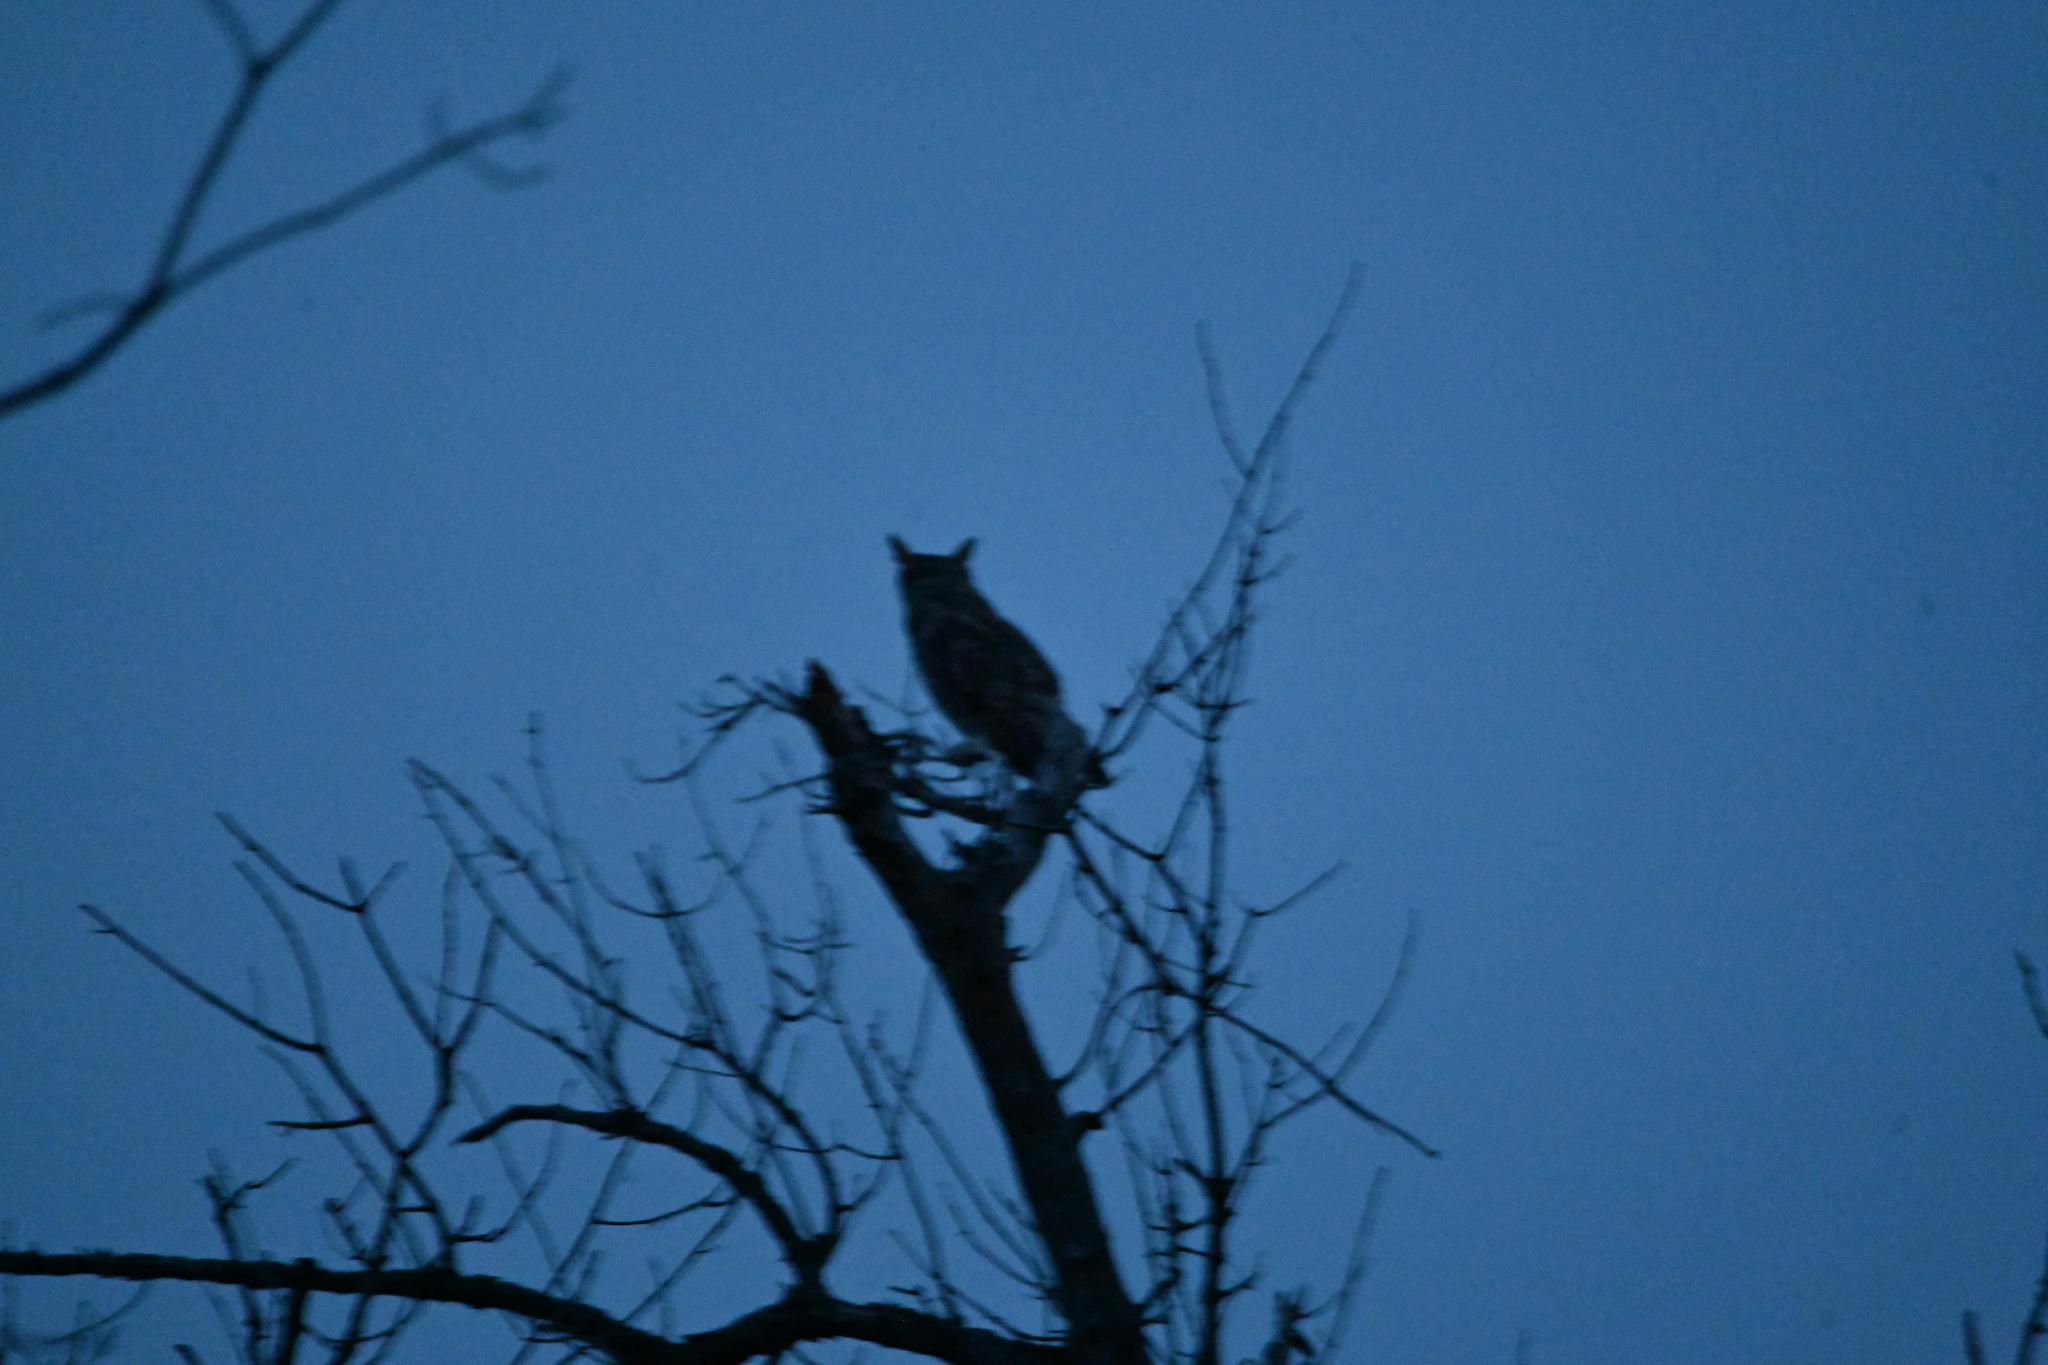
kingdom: Animalia
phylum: Chordata
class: Aves
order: Strigiformes
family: Strigidae
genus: Bubo
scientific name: Bubo virginianus
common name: Great horned owl
